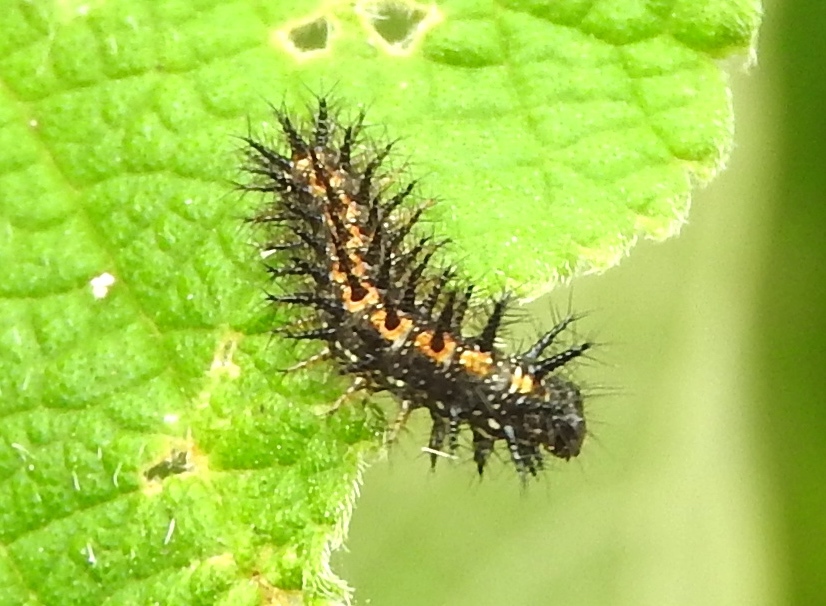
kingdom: Animalia
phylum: Arthropoda
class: Insecta
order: Lepidoptera
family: Nymphalidae
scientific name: Nymphalidae
